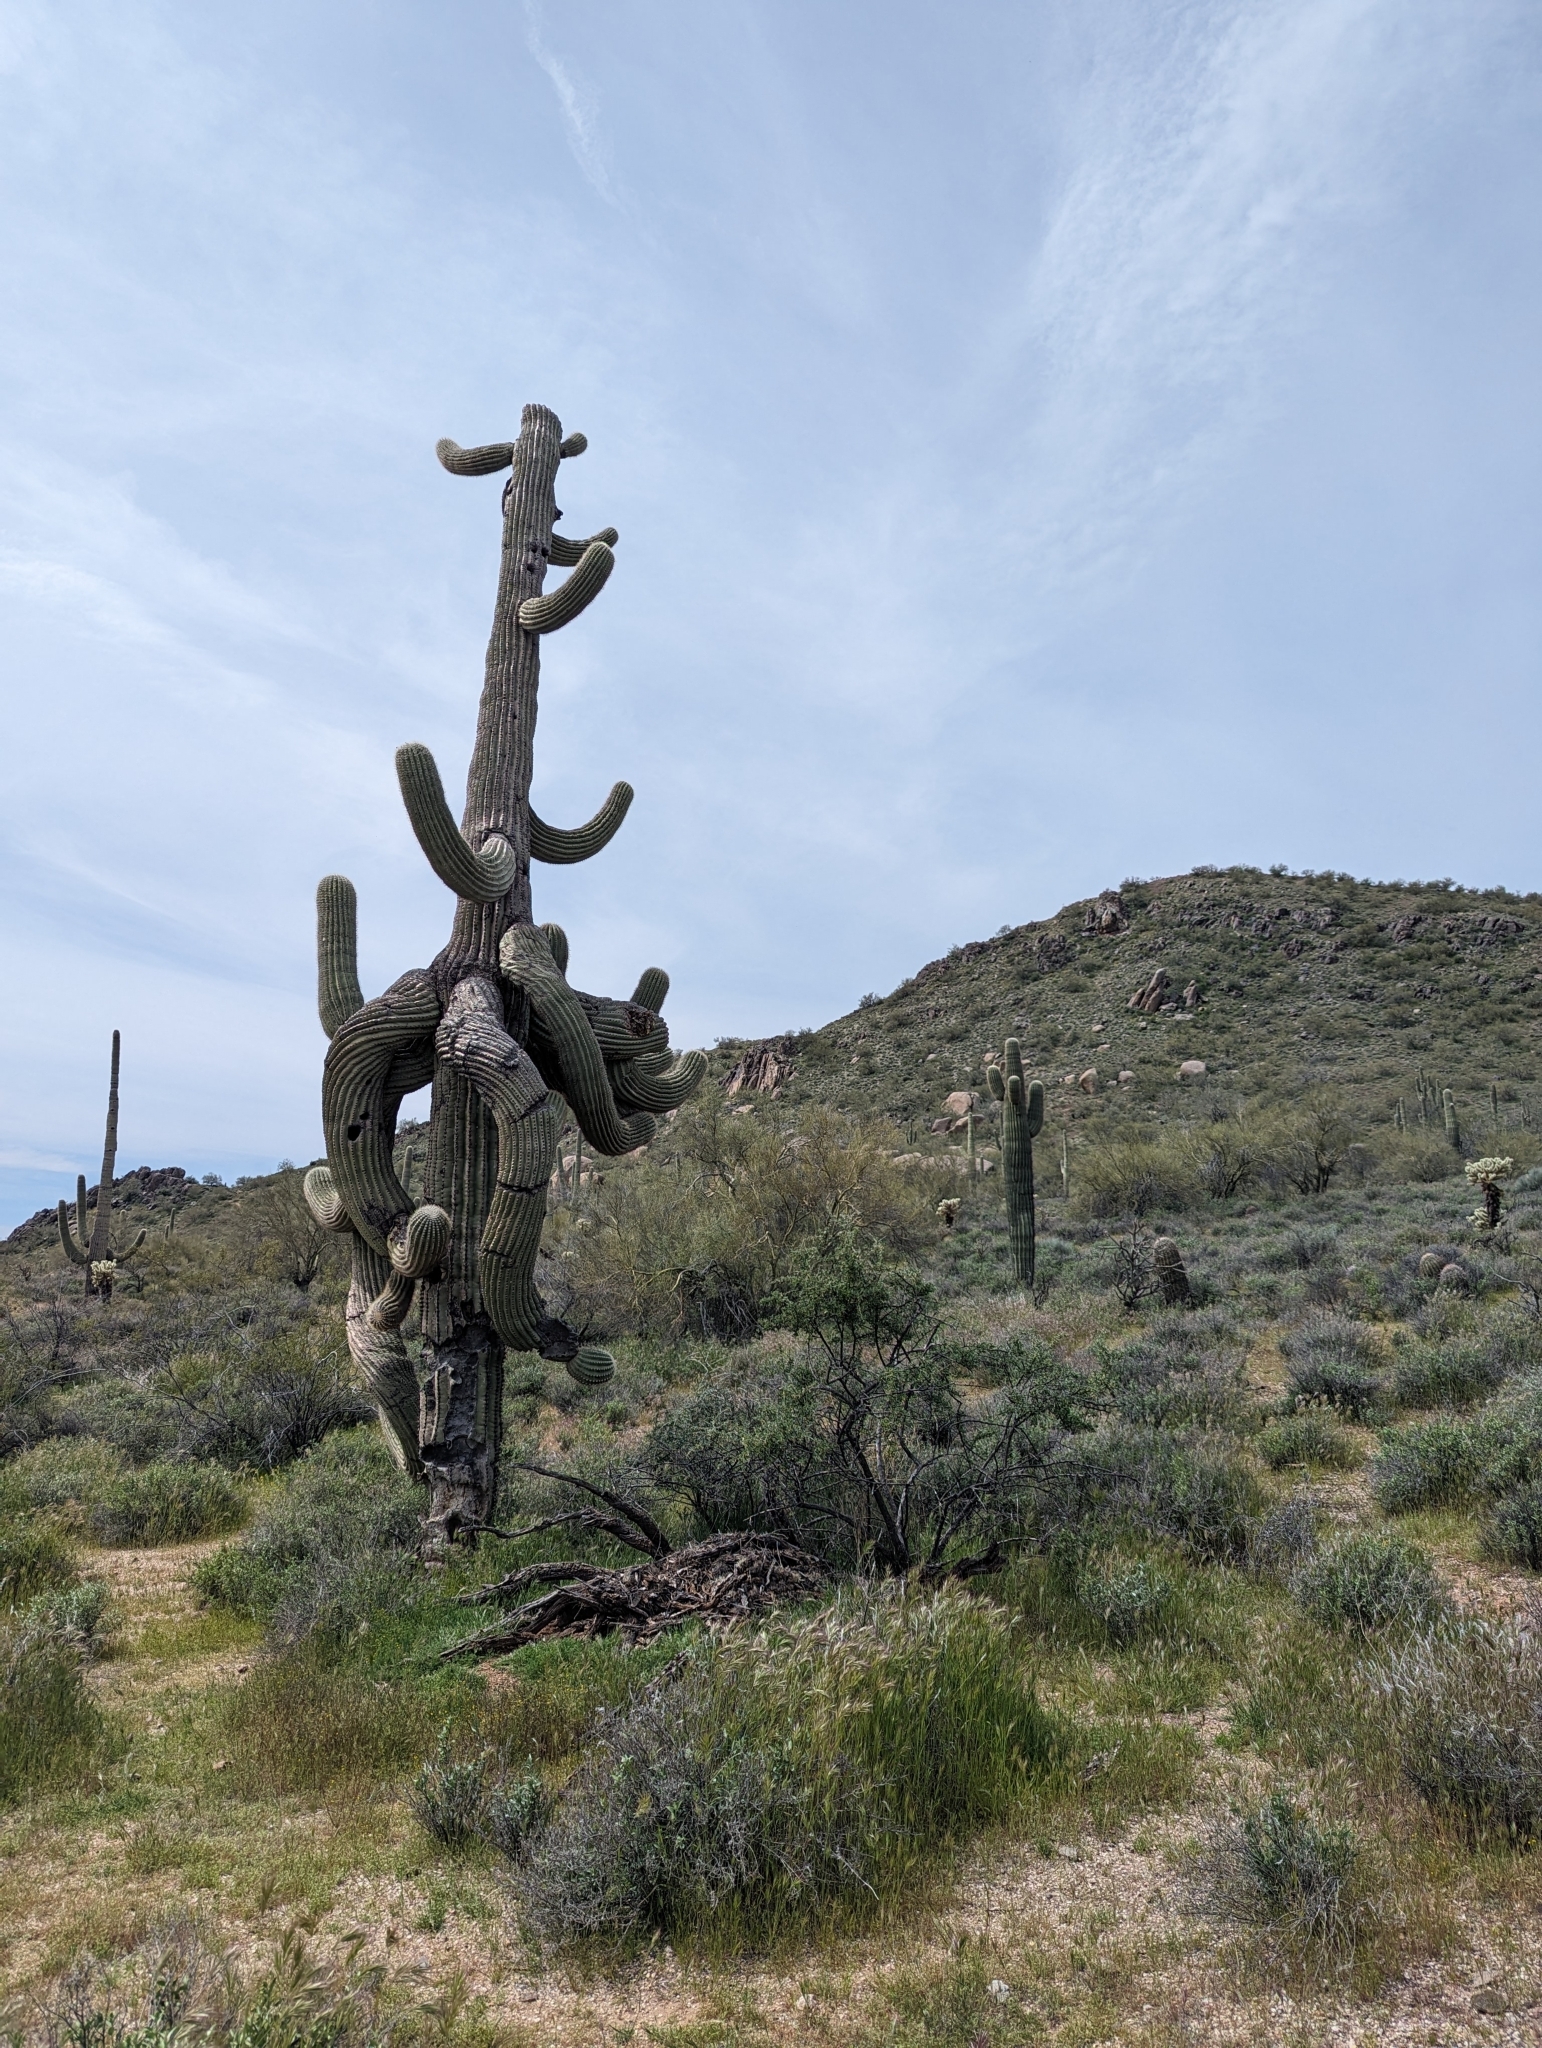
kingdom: Plantae
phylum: Tracheophyta
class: Magnoliopsida
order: Caryophyllales
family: Cactaceae
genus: Carnegiea
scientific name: Carnegiea gigantea
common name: Saguaro
